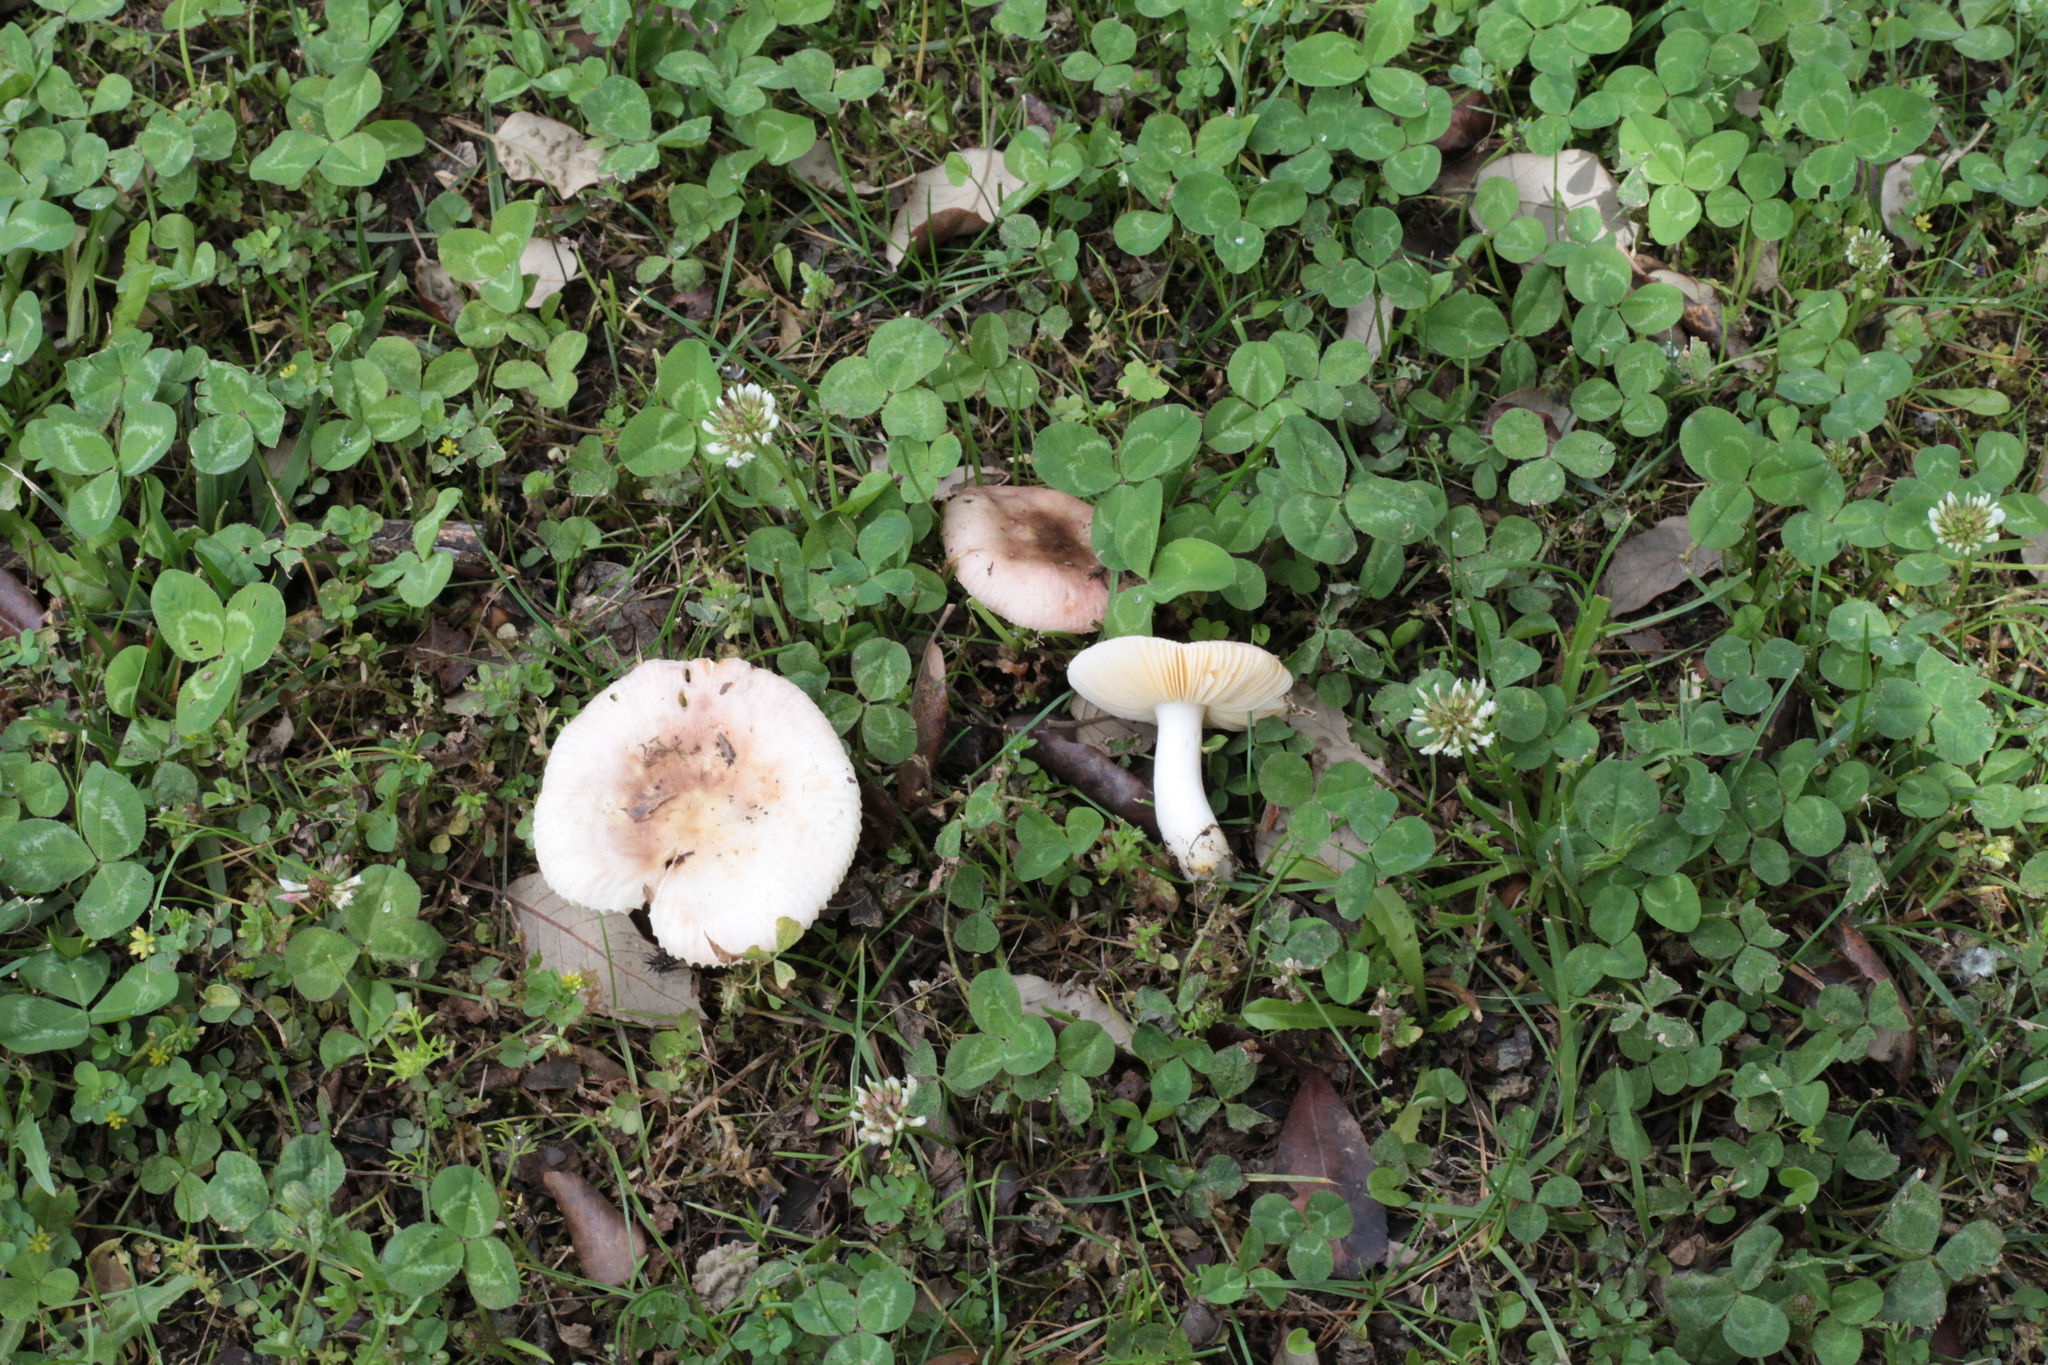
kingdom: Fungi
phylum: Basidiomycota
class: Agaricomycetes
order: Russulales
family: Russulaceae
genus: Russula
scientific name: Russula odorata
